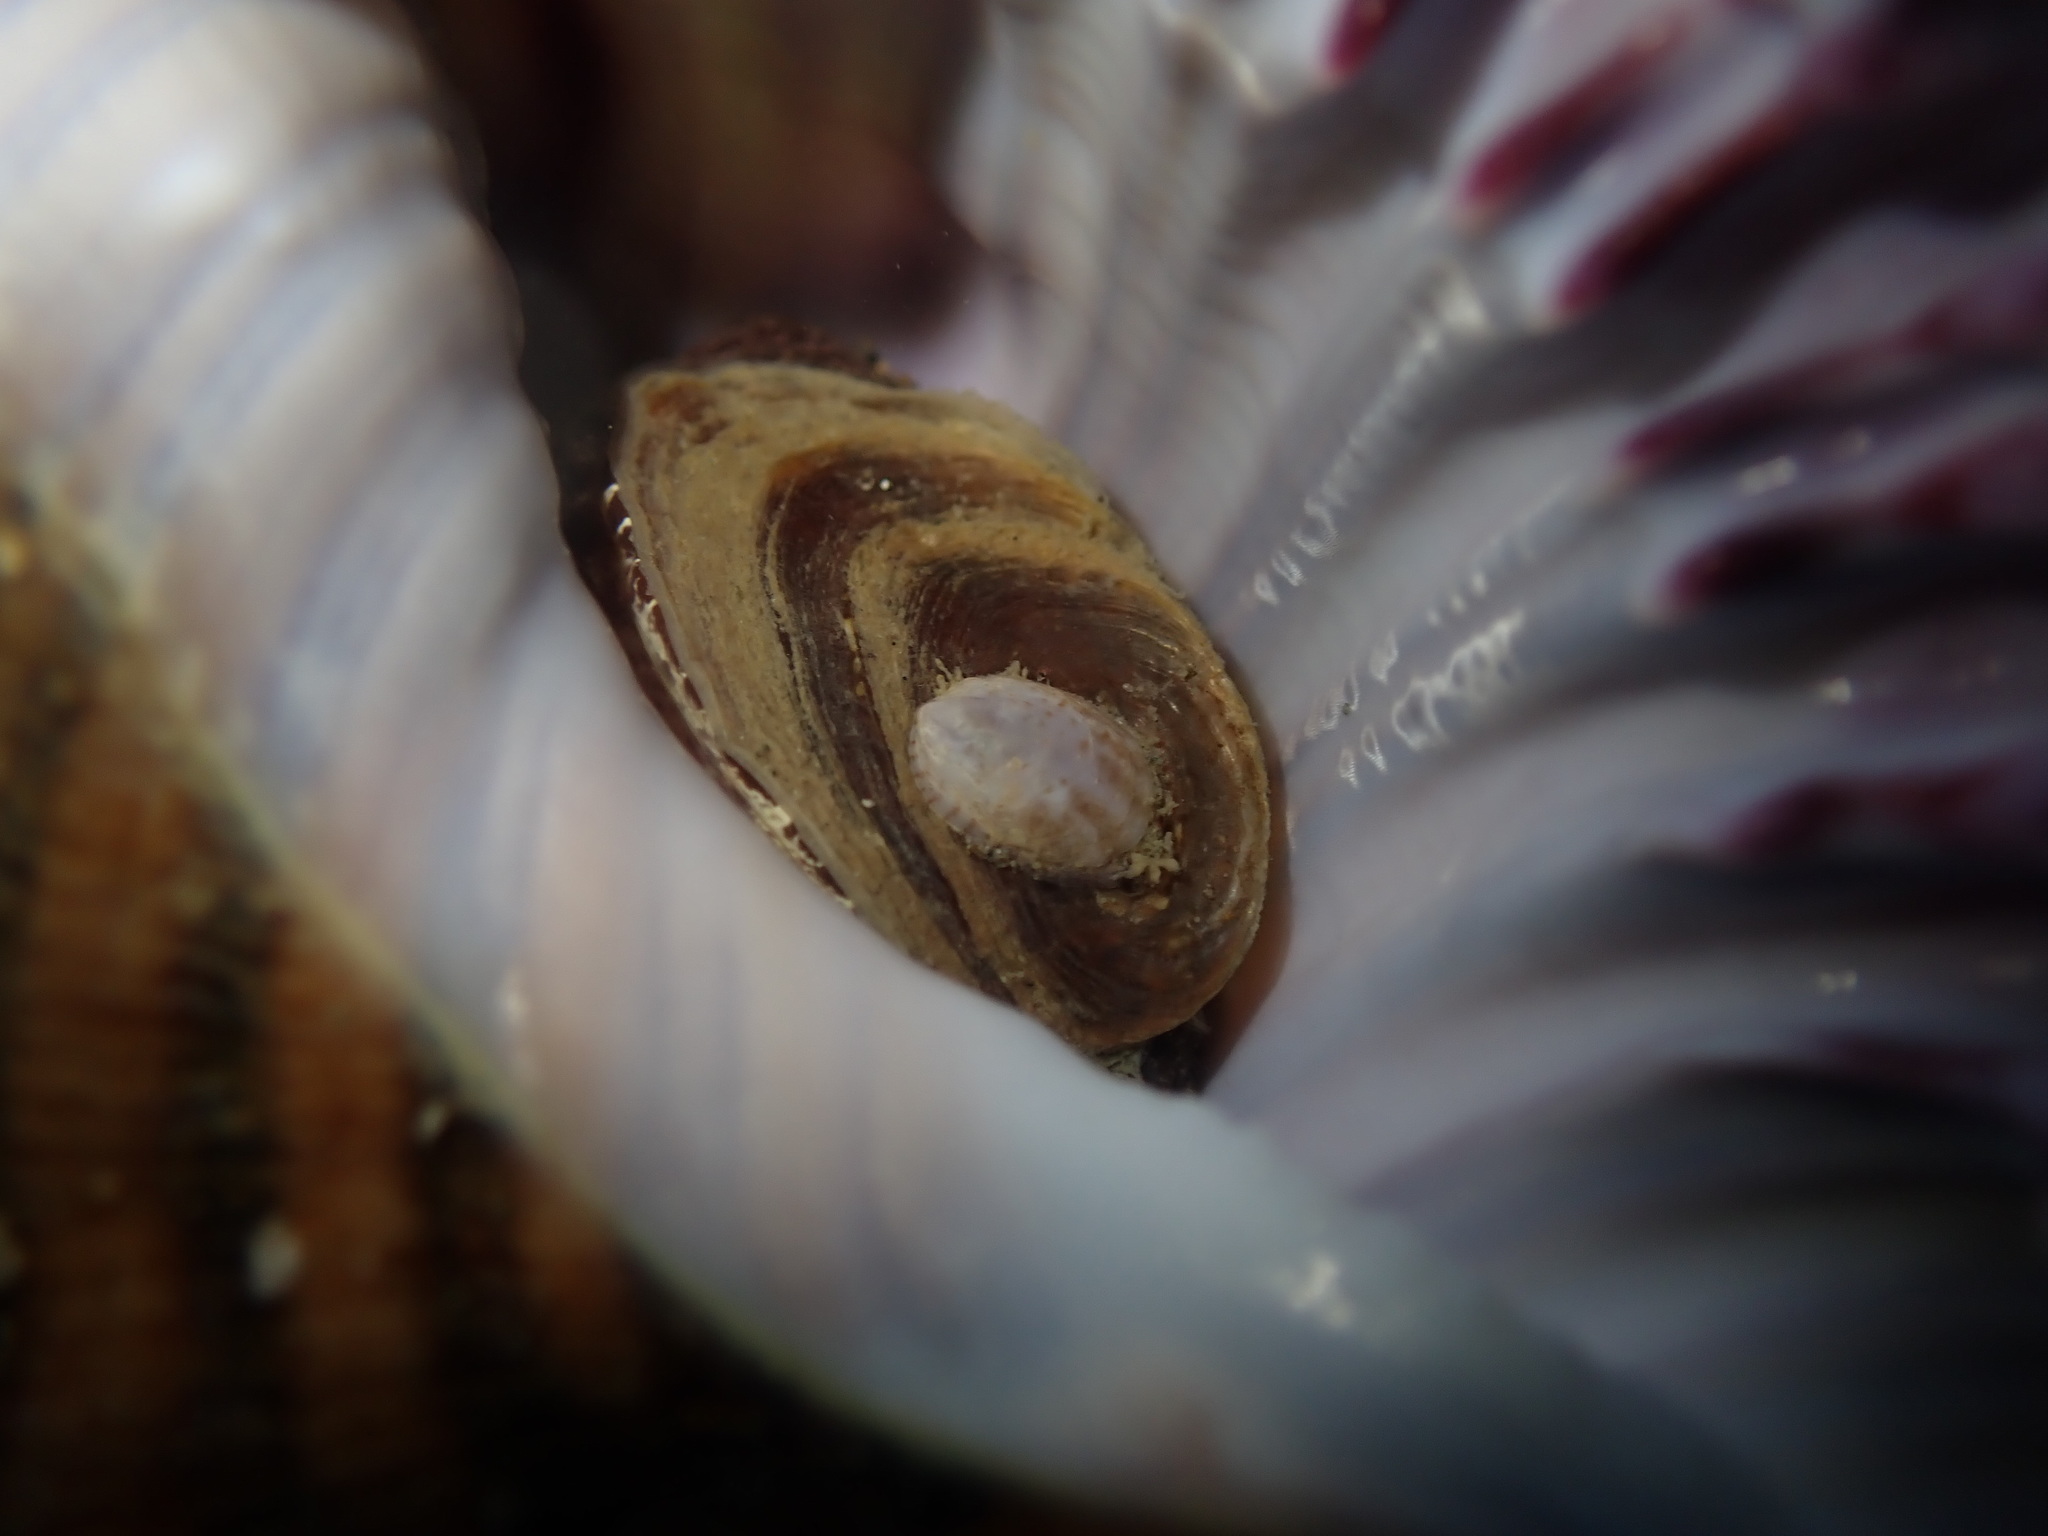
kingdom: Animalia
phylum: Mollusca
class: Gastropoda
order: Littorinimorpha
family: Calyptraeidae
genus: Maoricrypta
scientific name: Maoricrypta costata
